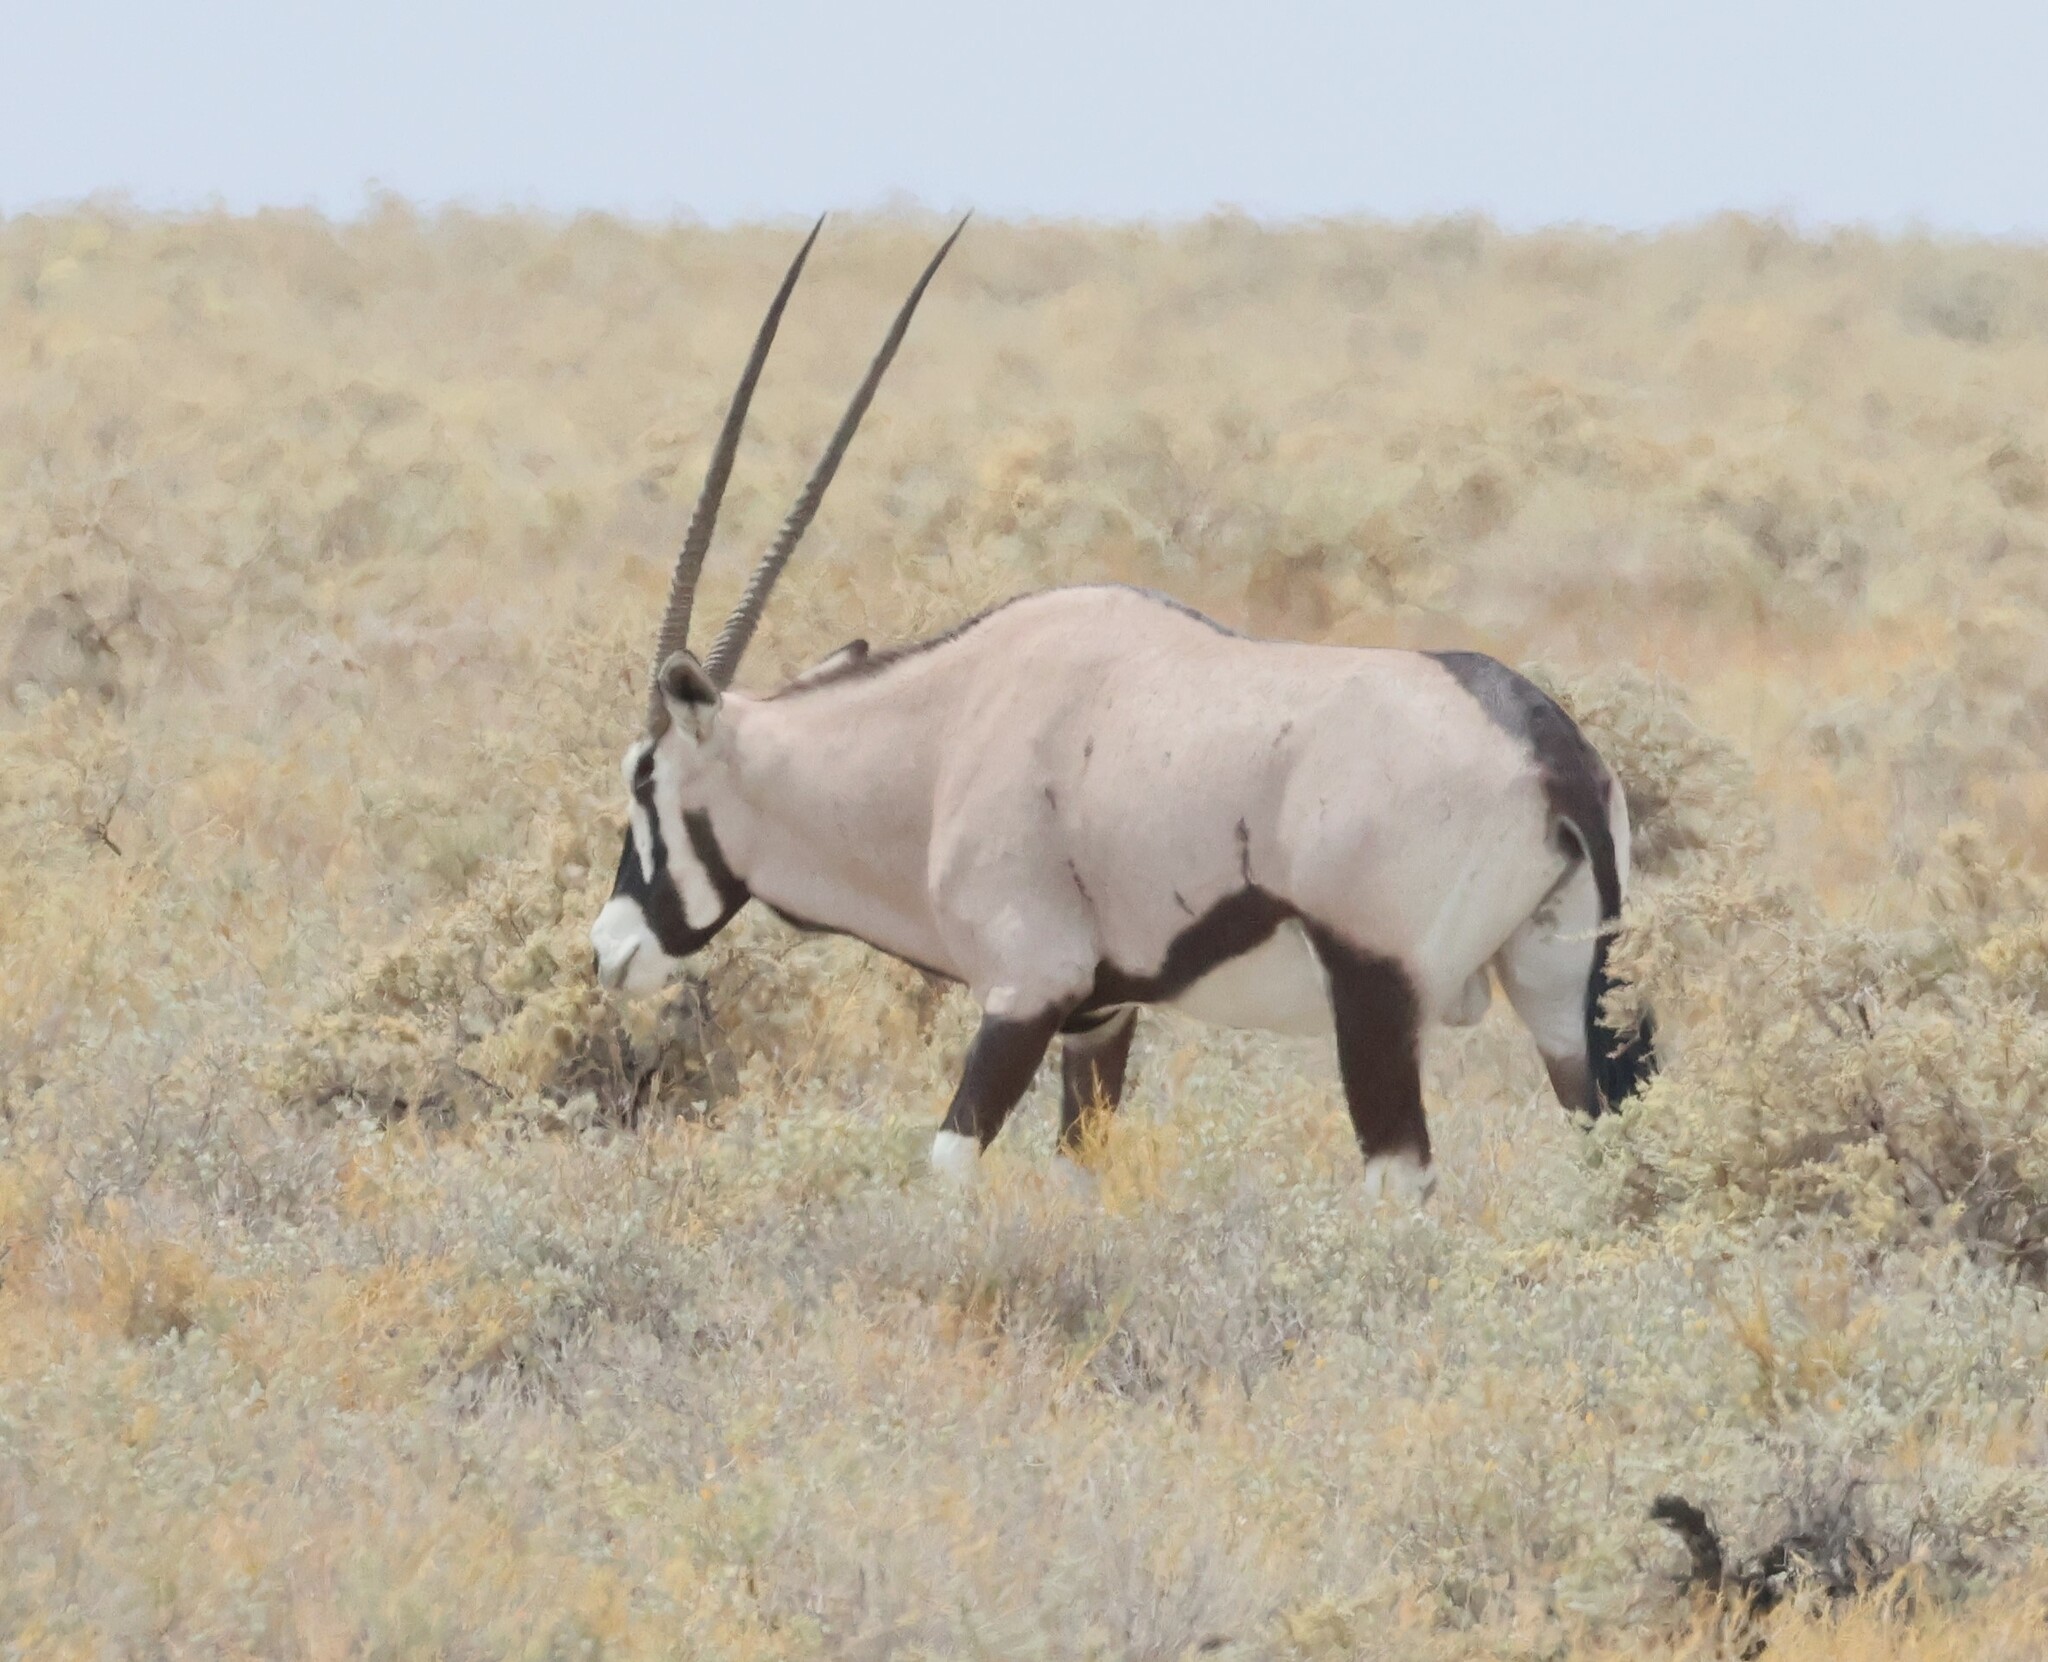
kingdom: Animalia
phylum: Chordata
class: Mammalia
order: Artiodactyla
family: Bovidae
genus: Oryx
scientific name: Oryx gazella
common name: Gemsbok
